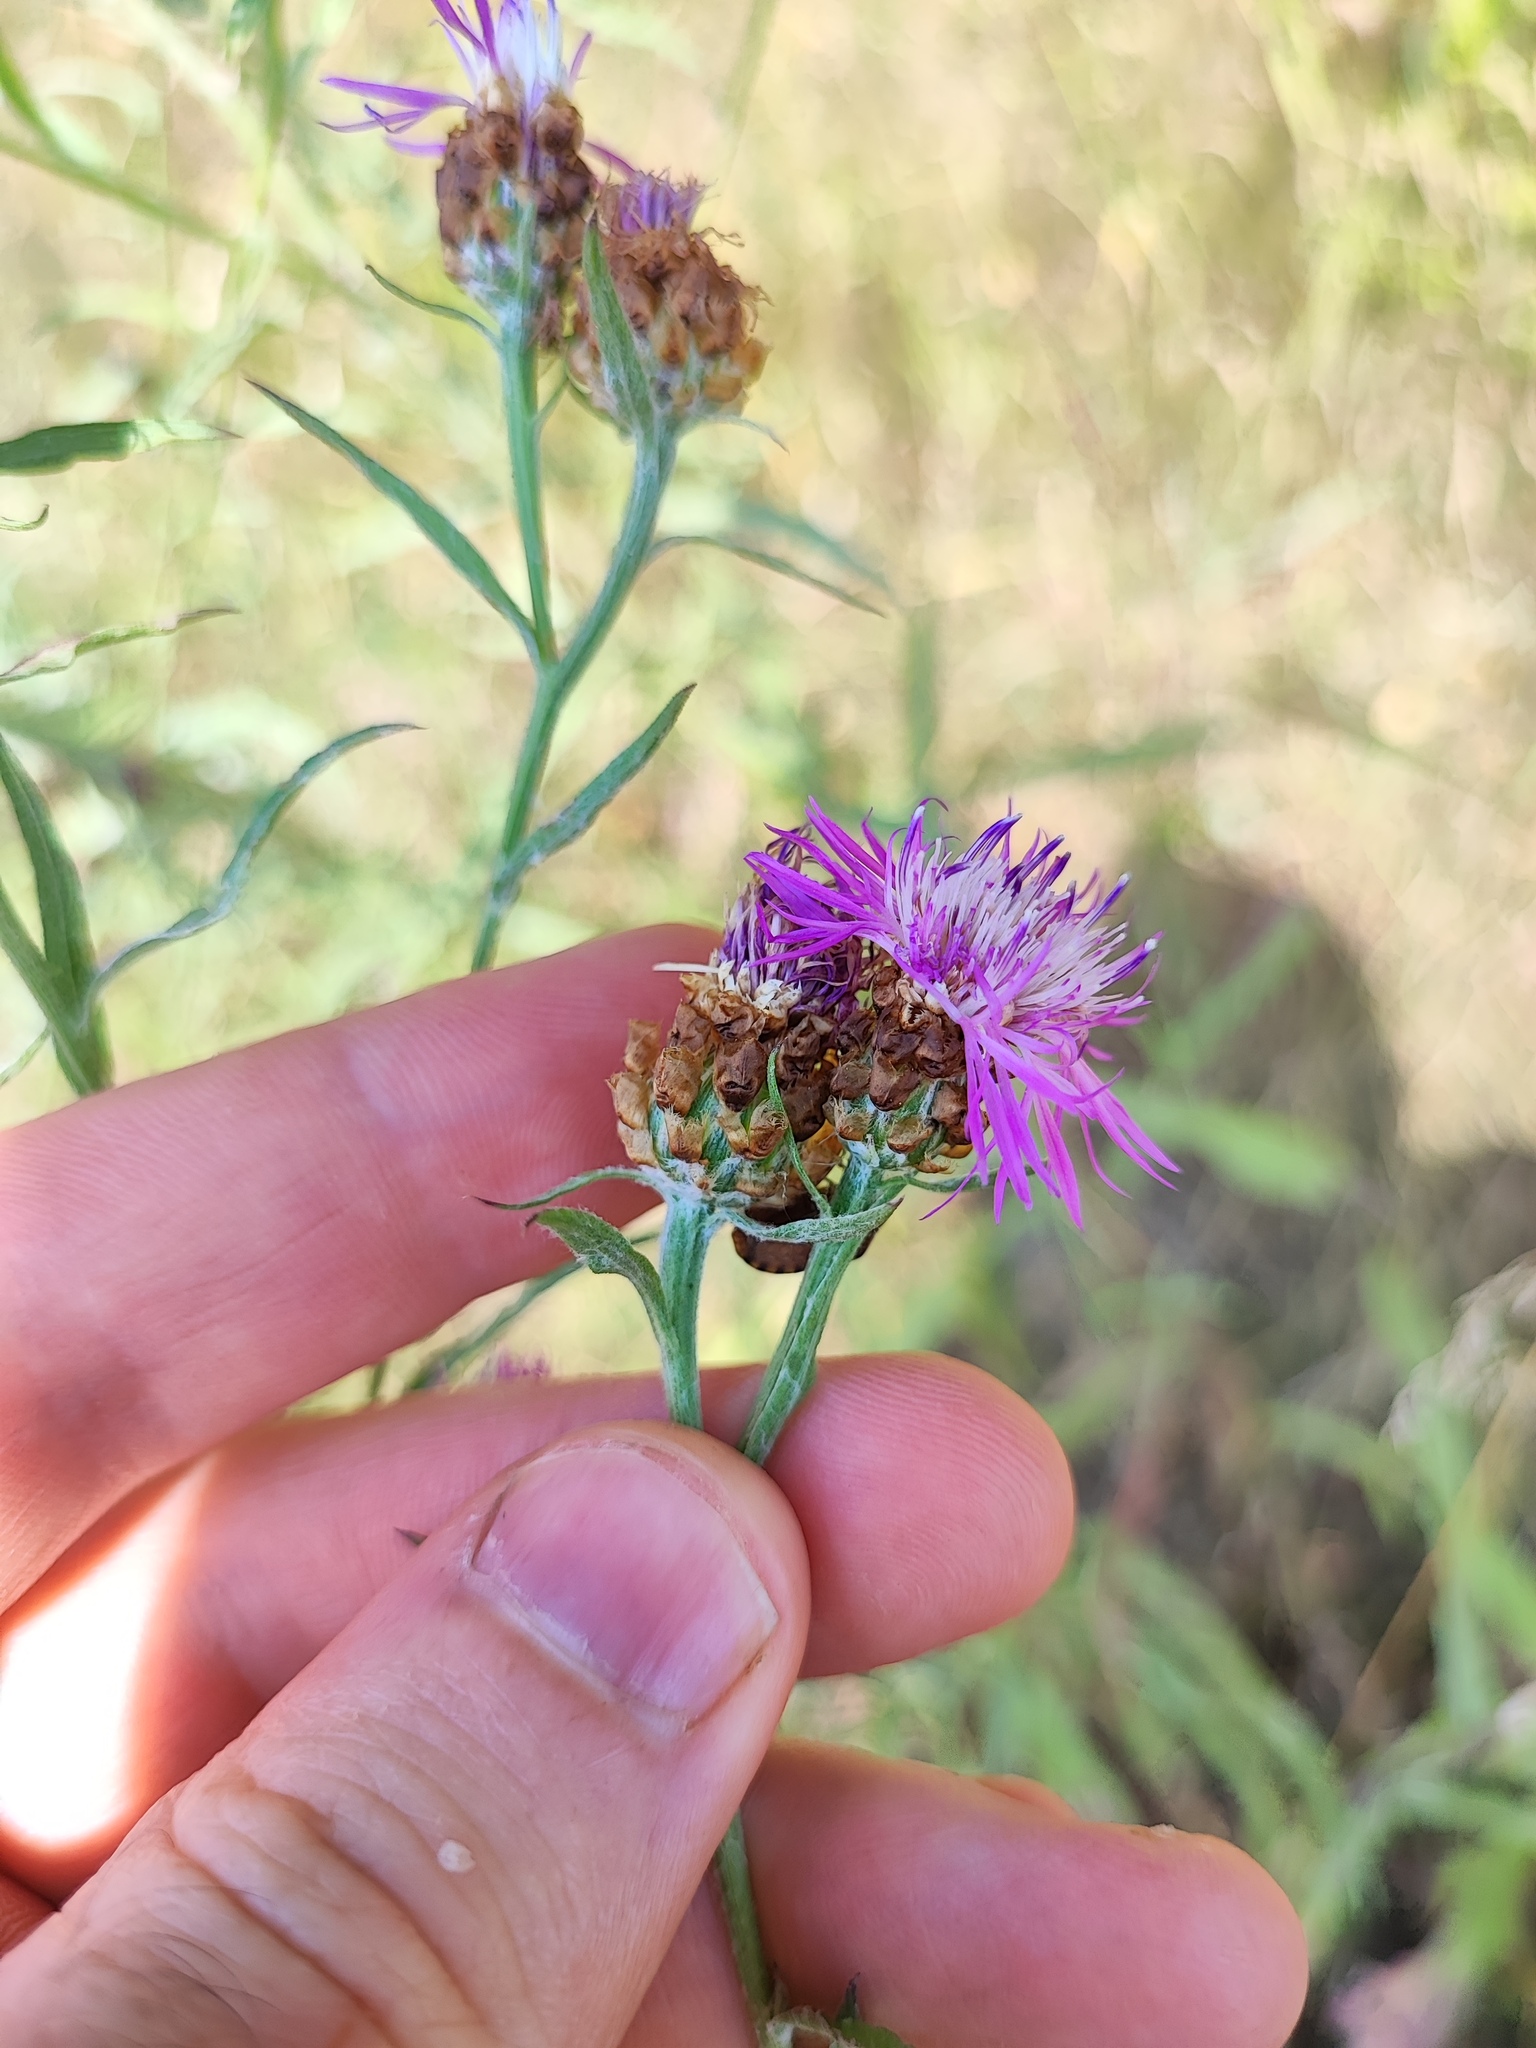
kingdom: Plantae
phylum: Tracheophyta
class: Magnoliopsida
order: Asterales
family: Asteraceae
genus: Centaurea
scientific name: Centaurea jacea
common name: Brown knapweed
